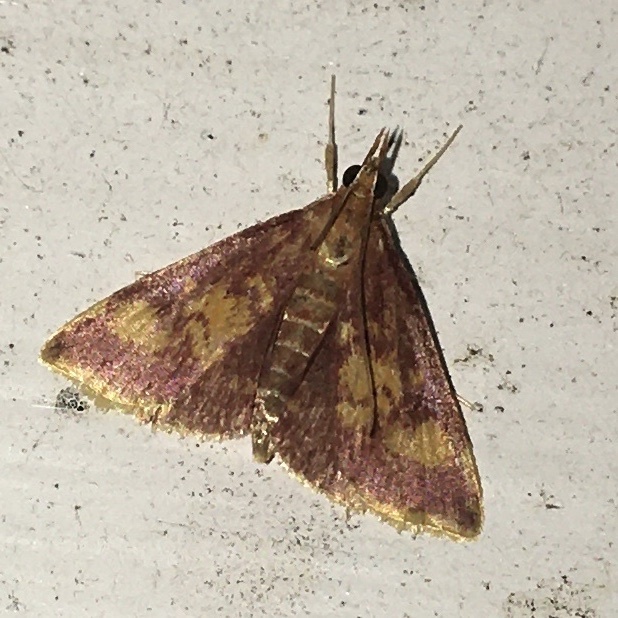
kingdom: Animalia
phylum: Arthropoda
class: Insecta
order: Lepidoptera
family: Crambidae
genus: Pyrausta
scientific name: Pyrausta acrionalis
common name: Mint-loving pyrausta moth
